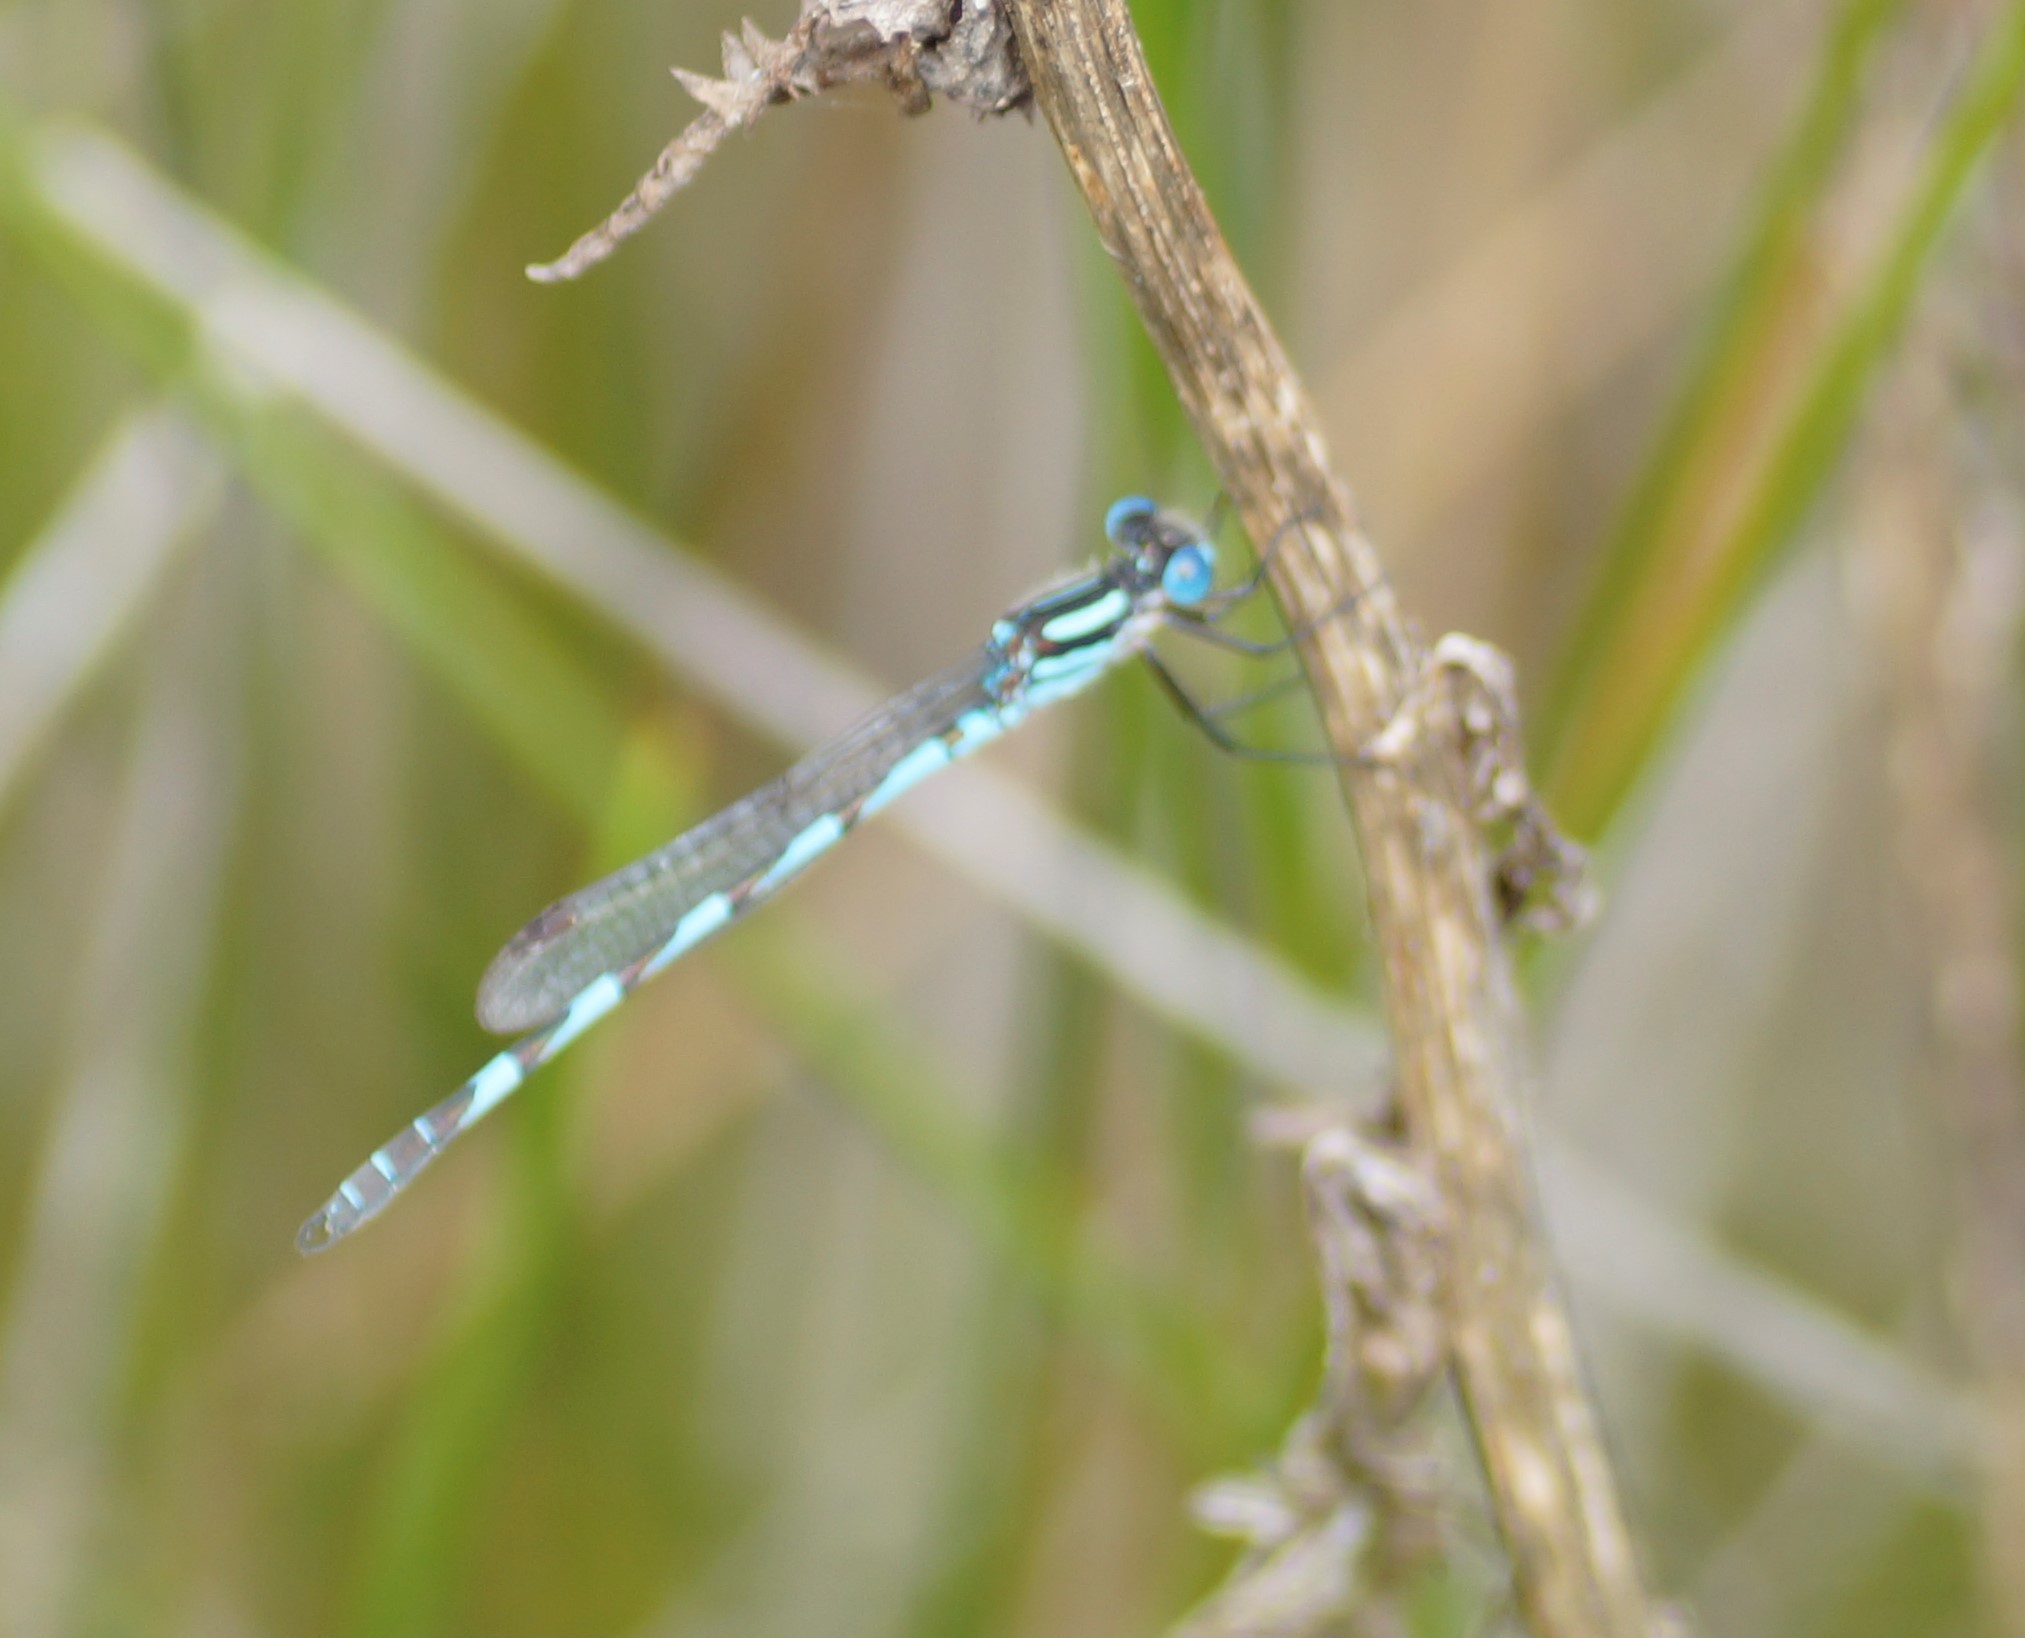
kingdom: Animalia
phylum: Arthropoda
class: Insecta
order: Odonata
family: Lestidae
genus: Austrolestes
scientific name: Austrolestes annulosus
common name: Blue ringtail
